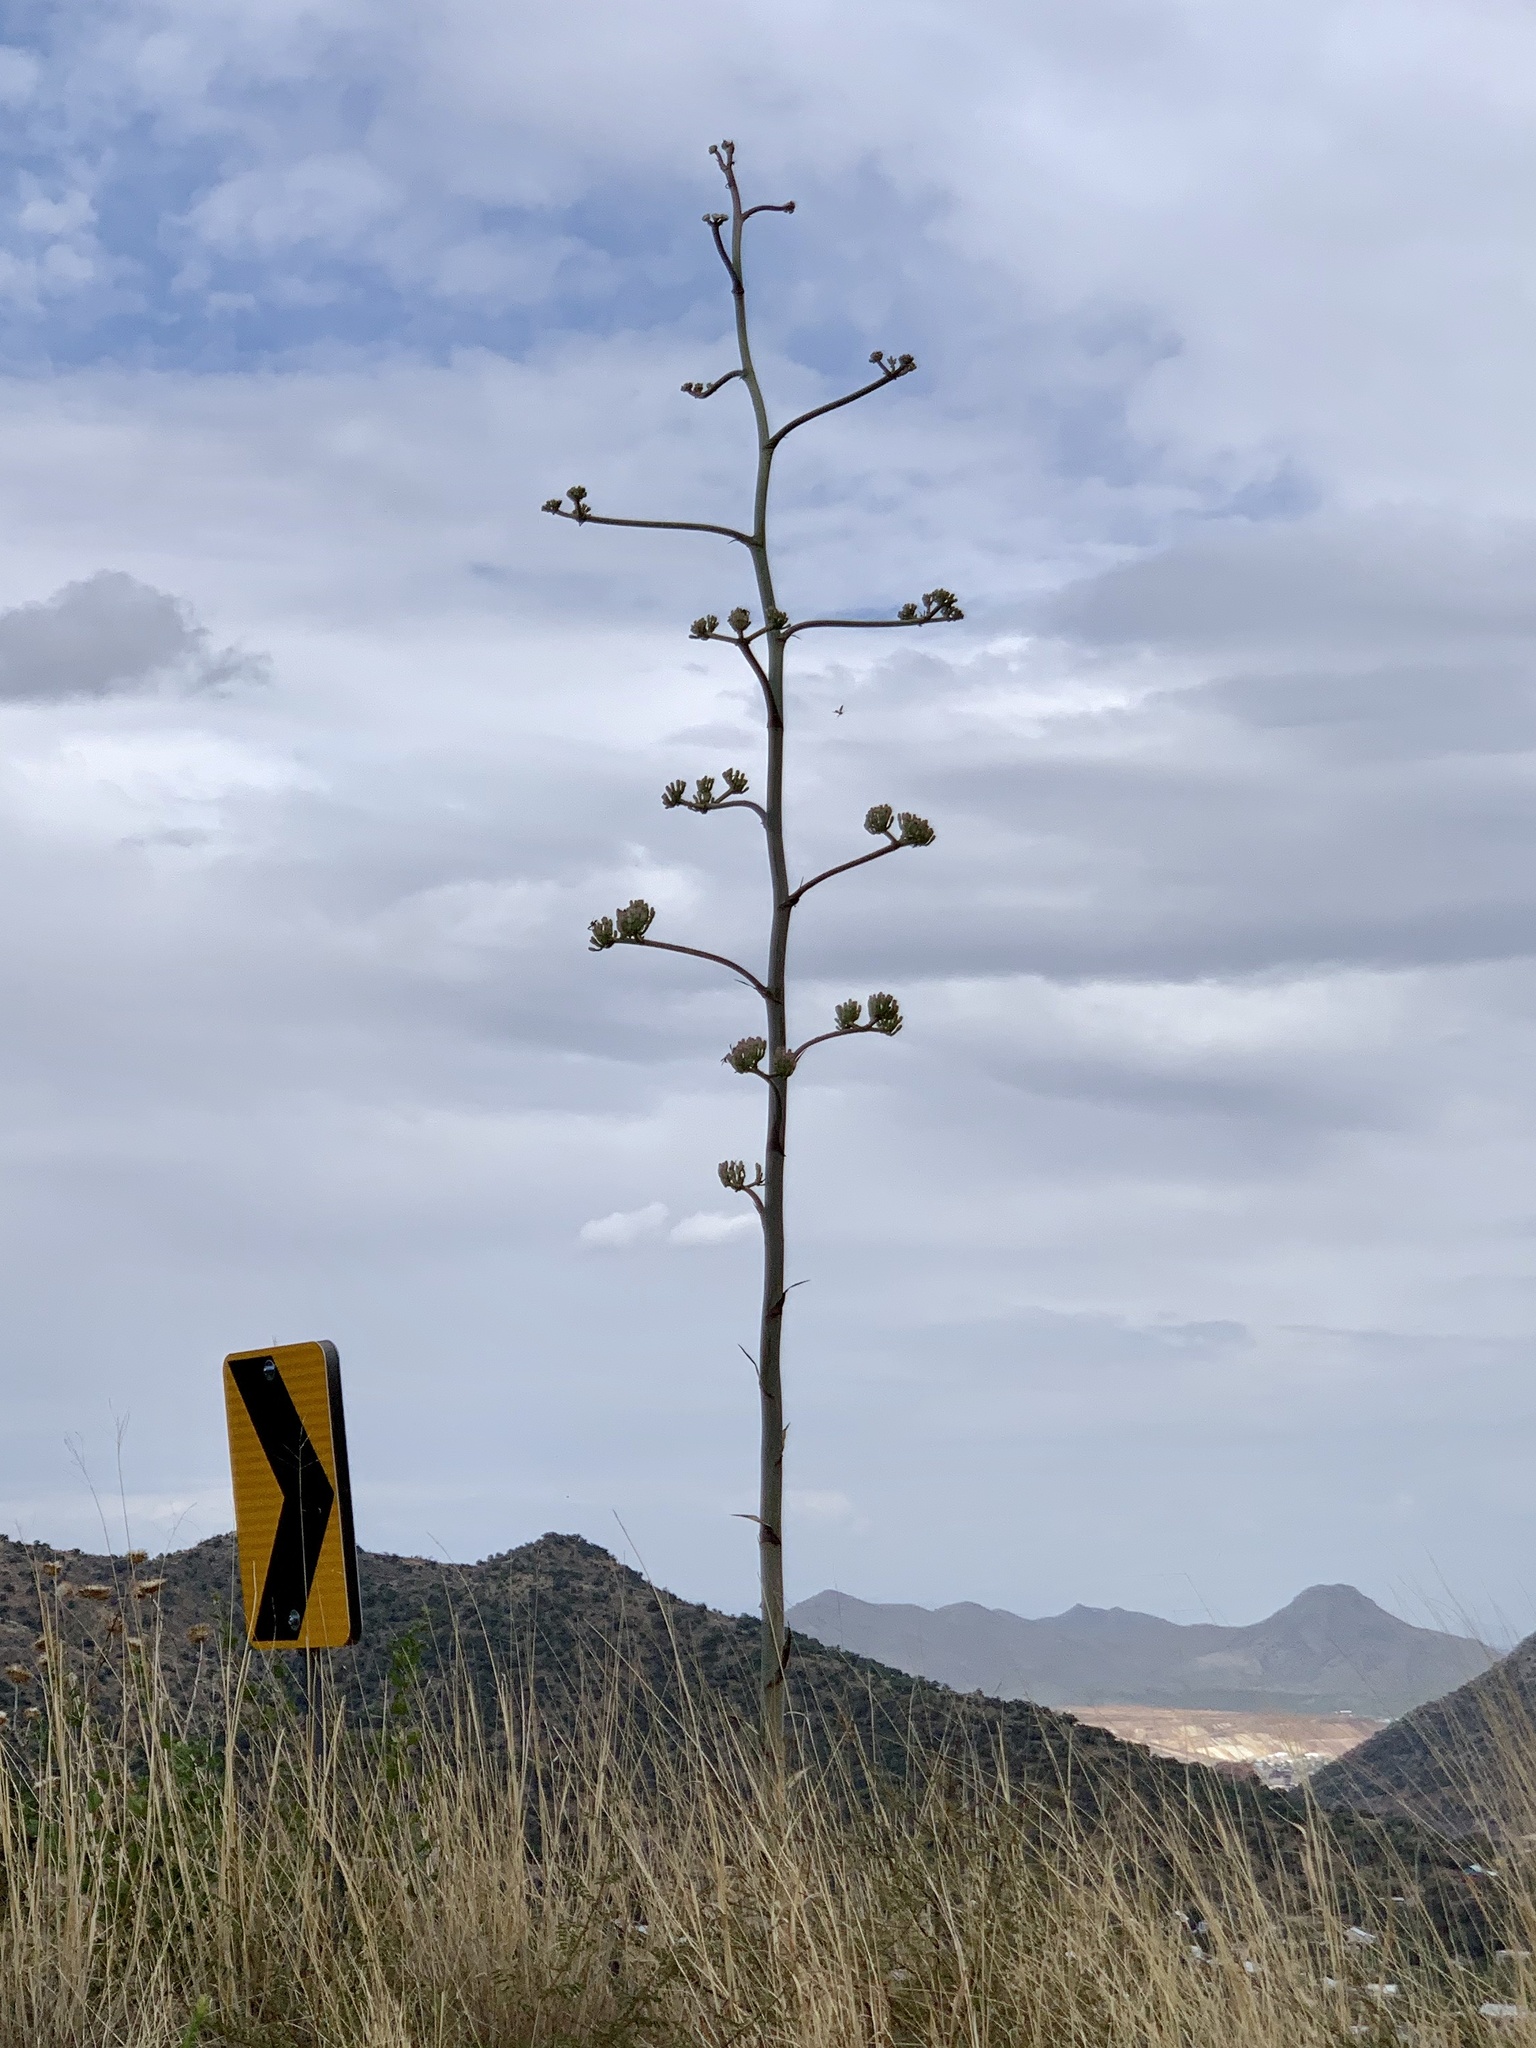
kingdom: Plantae
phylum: Tracheophyta
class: Liliopsida
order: Asparagales
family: Asparagaceae
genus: Agave
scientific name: Agave palmeri
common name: Palmer agave
